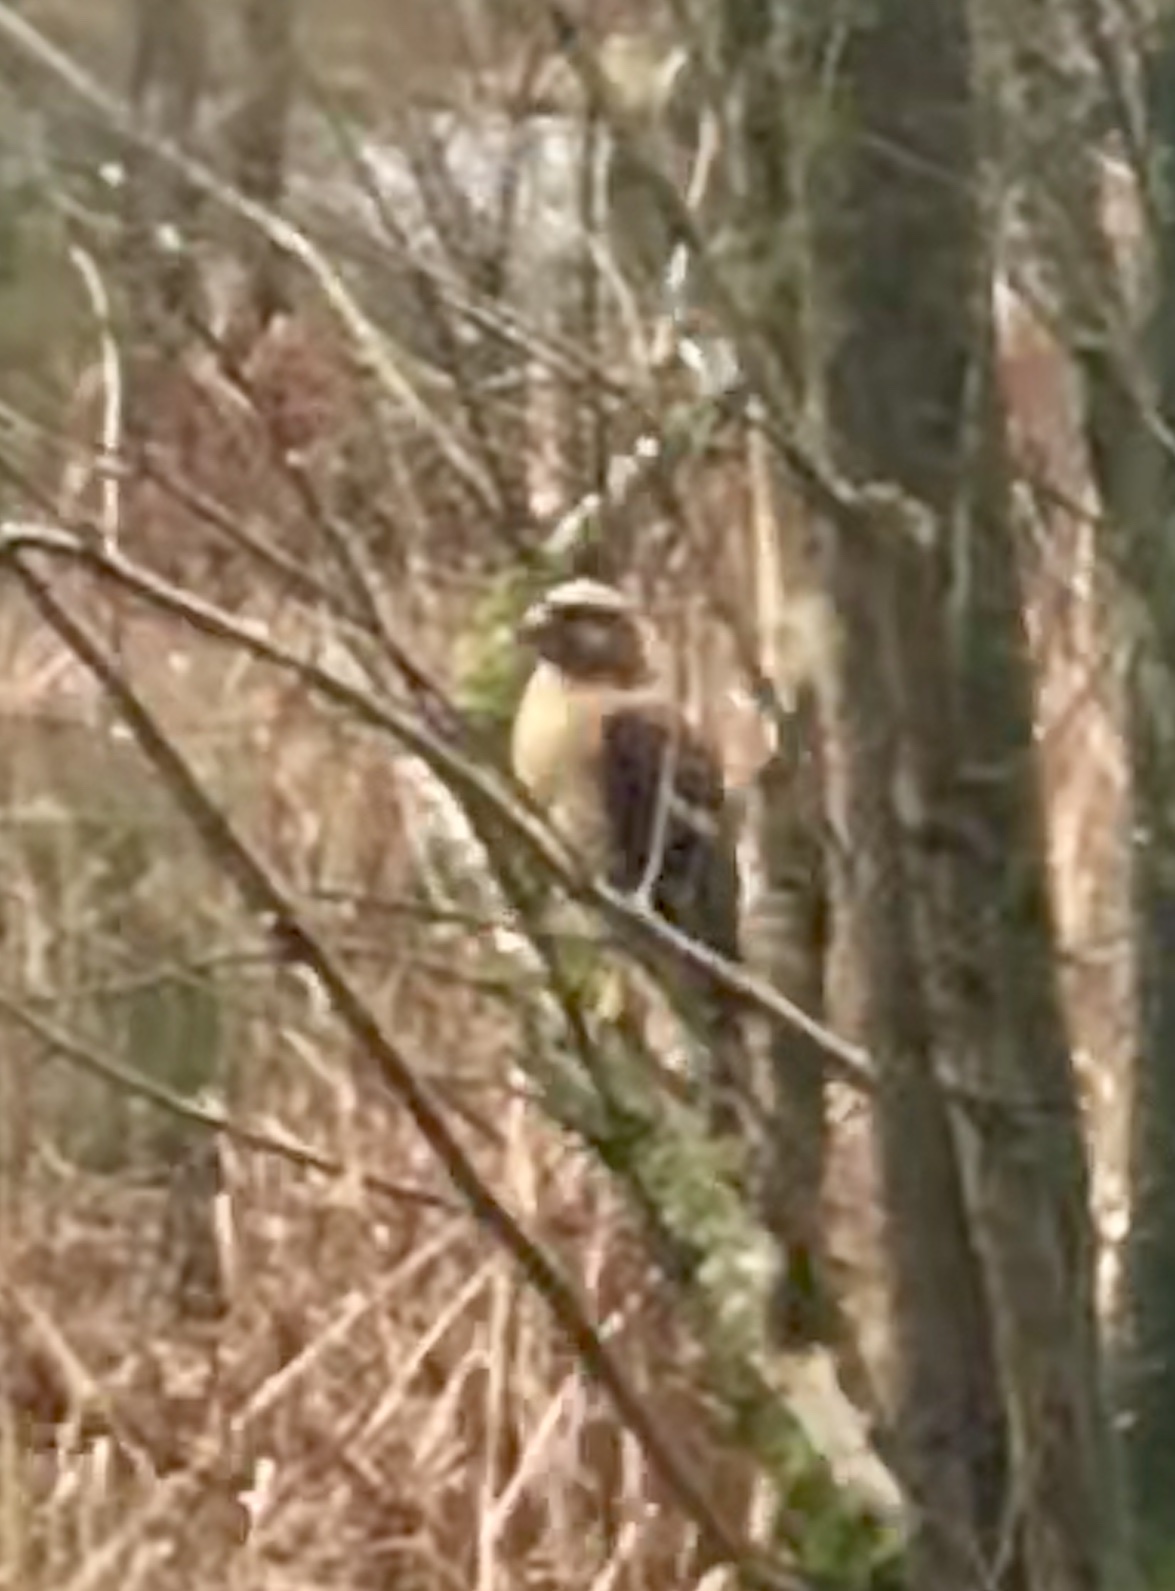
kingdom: Animalia
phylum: Chordata
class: Aves
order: Accipitriformes
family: Accipitridae
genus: Buteo
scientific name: Buteo lineatus
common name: Red-shouldered hawk
